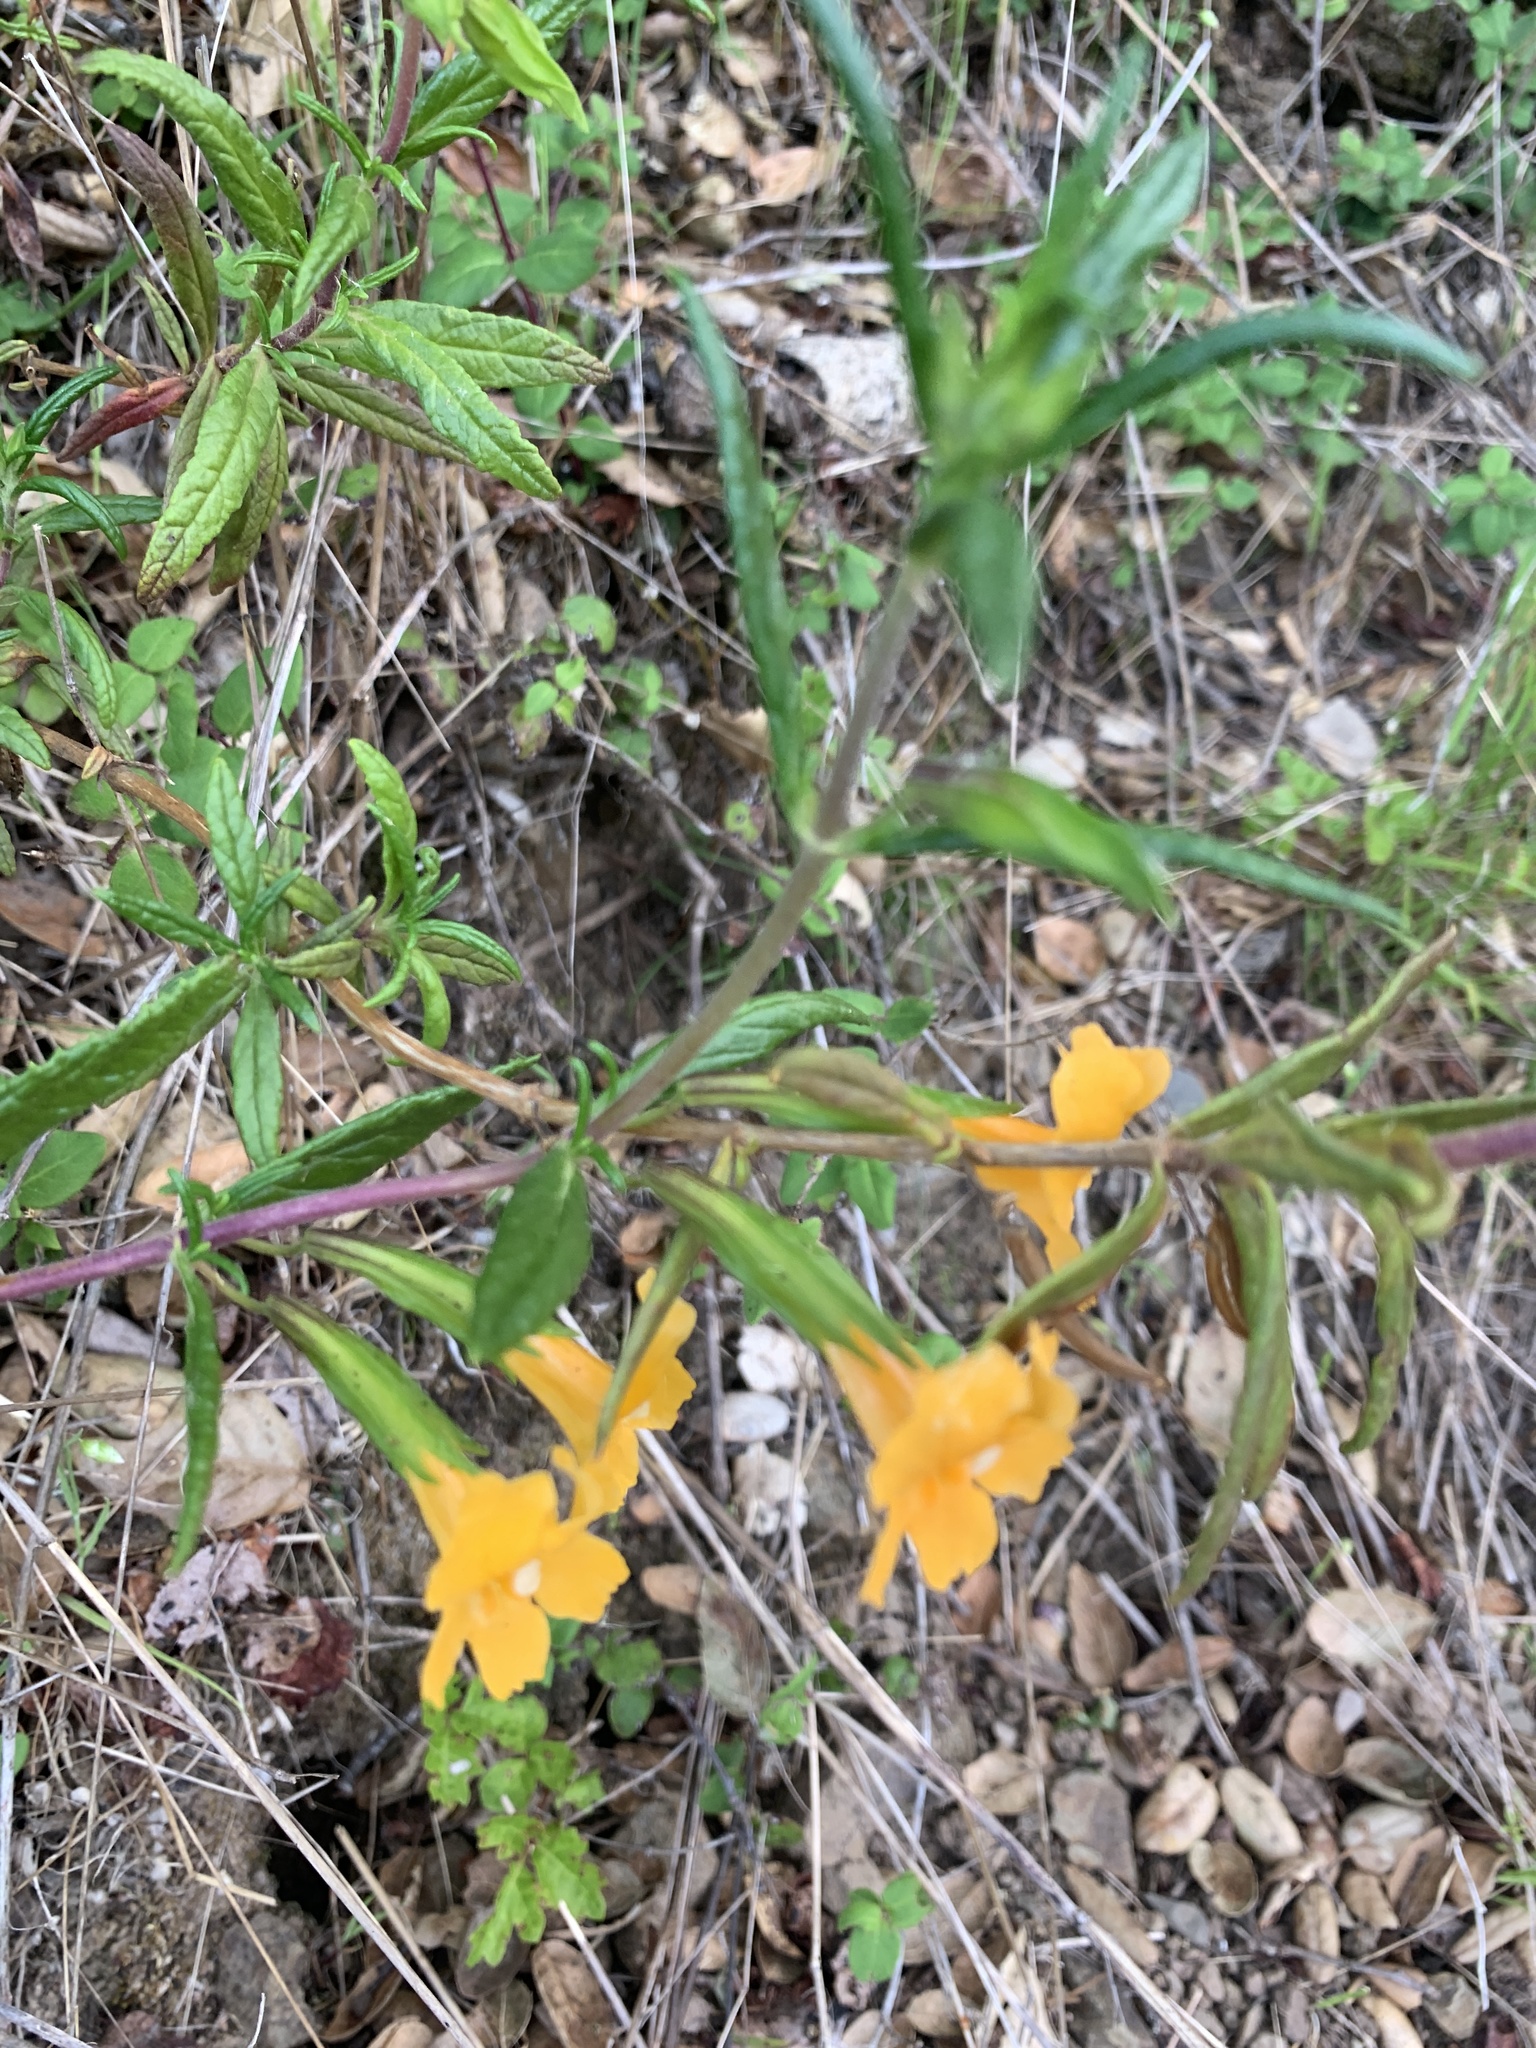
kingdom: Plantae
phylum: Tracheophyta
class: Magnoliopsida
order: Lamiales
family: Phrymaceae
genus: Diplacus
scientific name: Diplacus aurantiacus
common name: Bush monkey-flower
